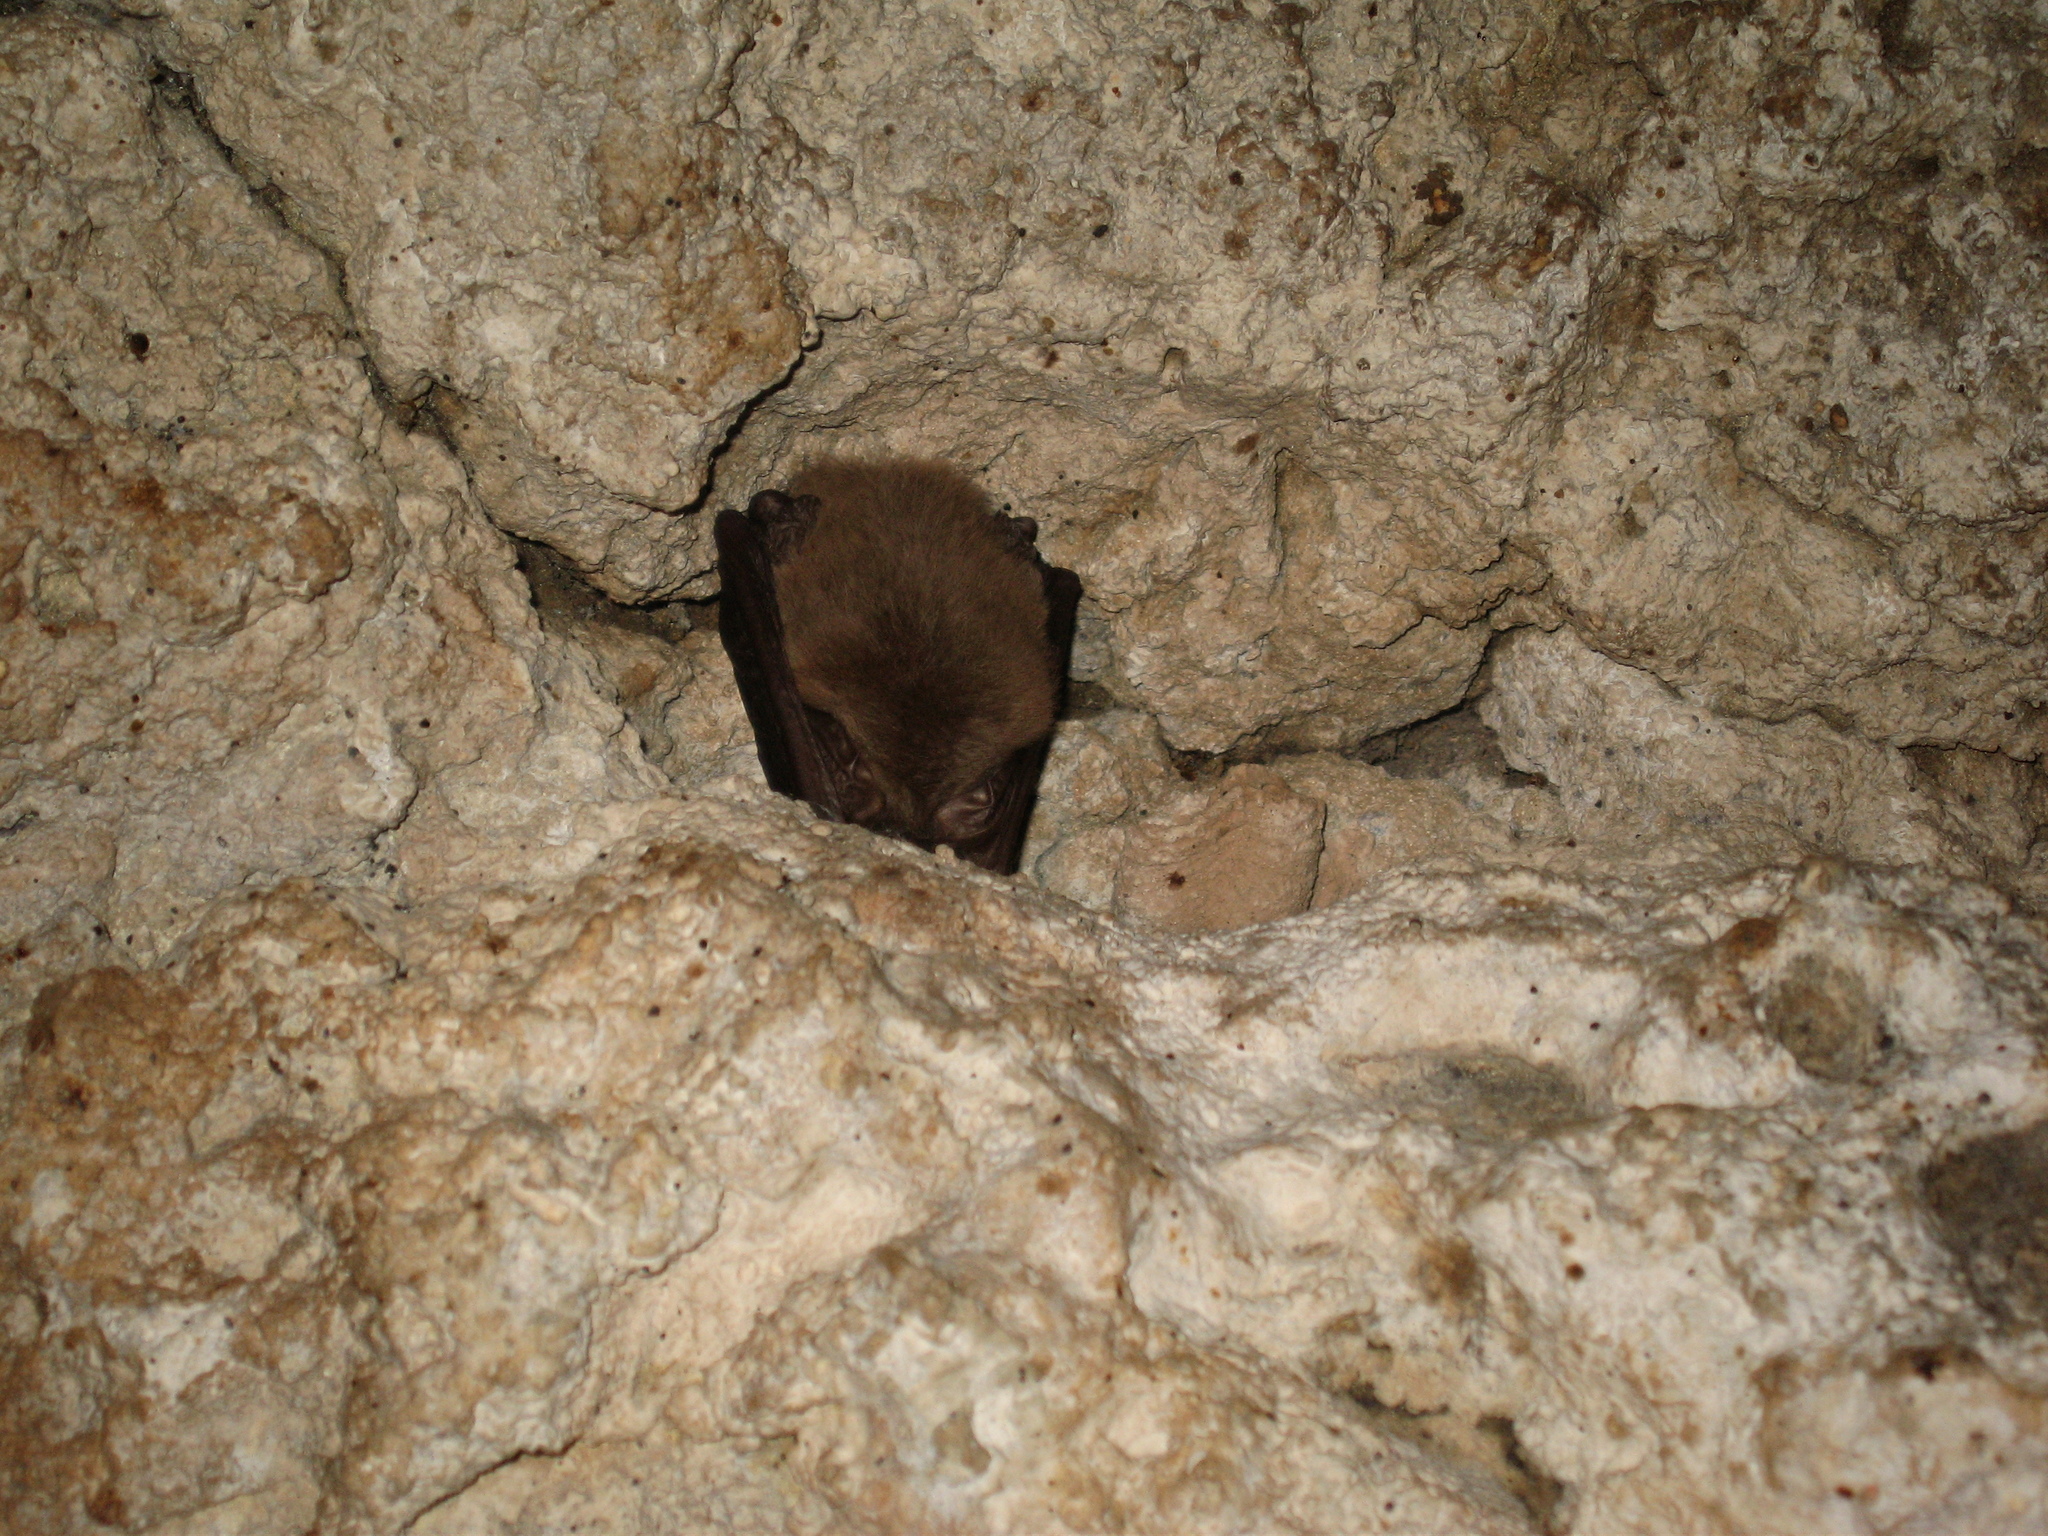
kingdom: Animalia
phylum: Chordata
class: Mammalia
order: Chiroptera
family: Vespertilionidae
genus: Corynorhinus
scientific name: Corynorhinus townsendii
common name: Townsend's big-eared bat
